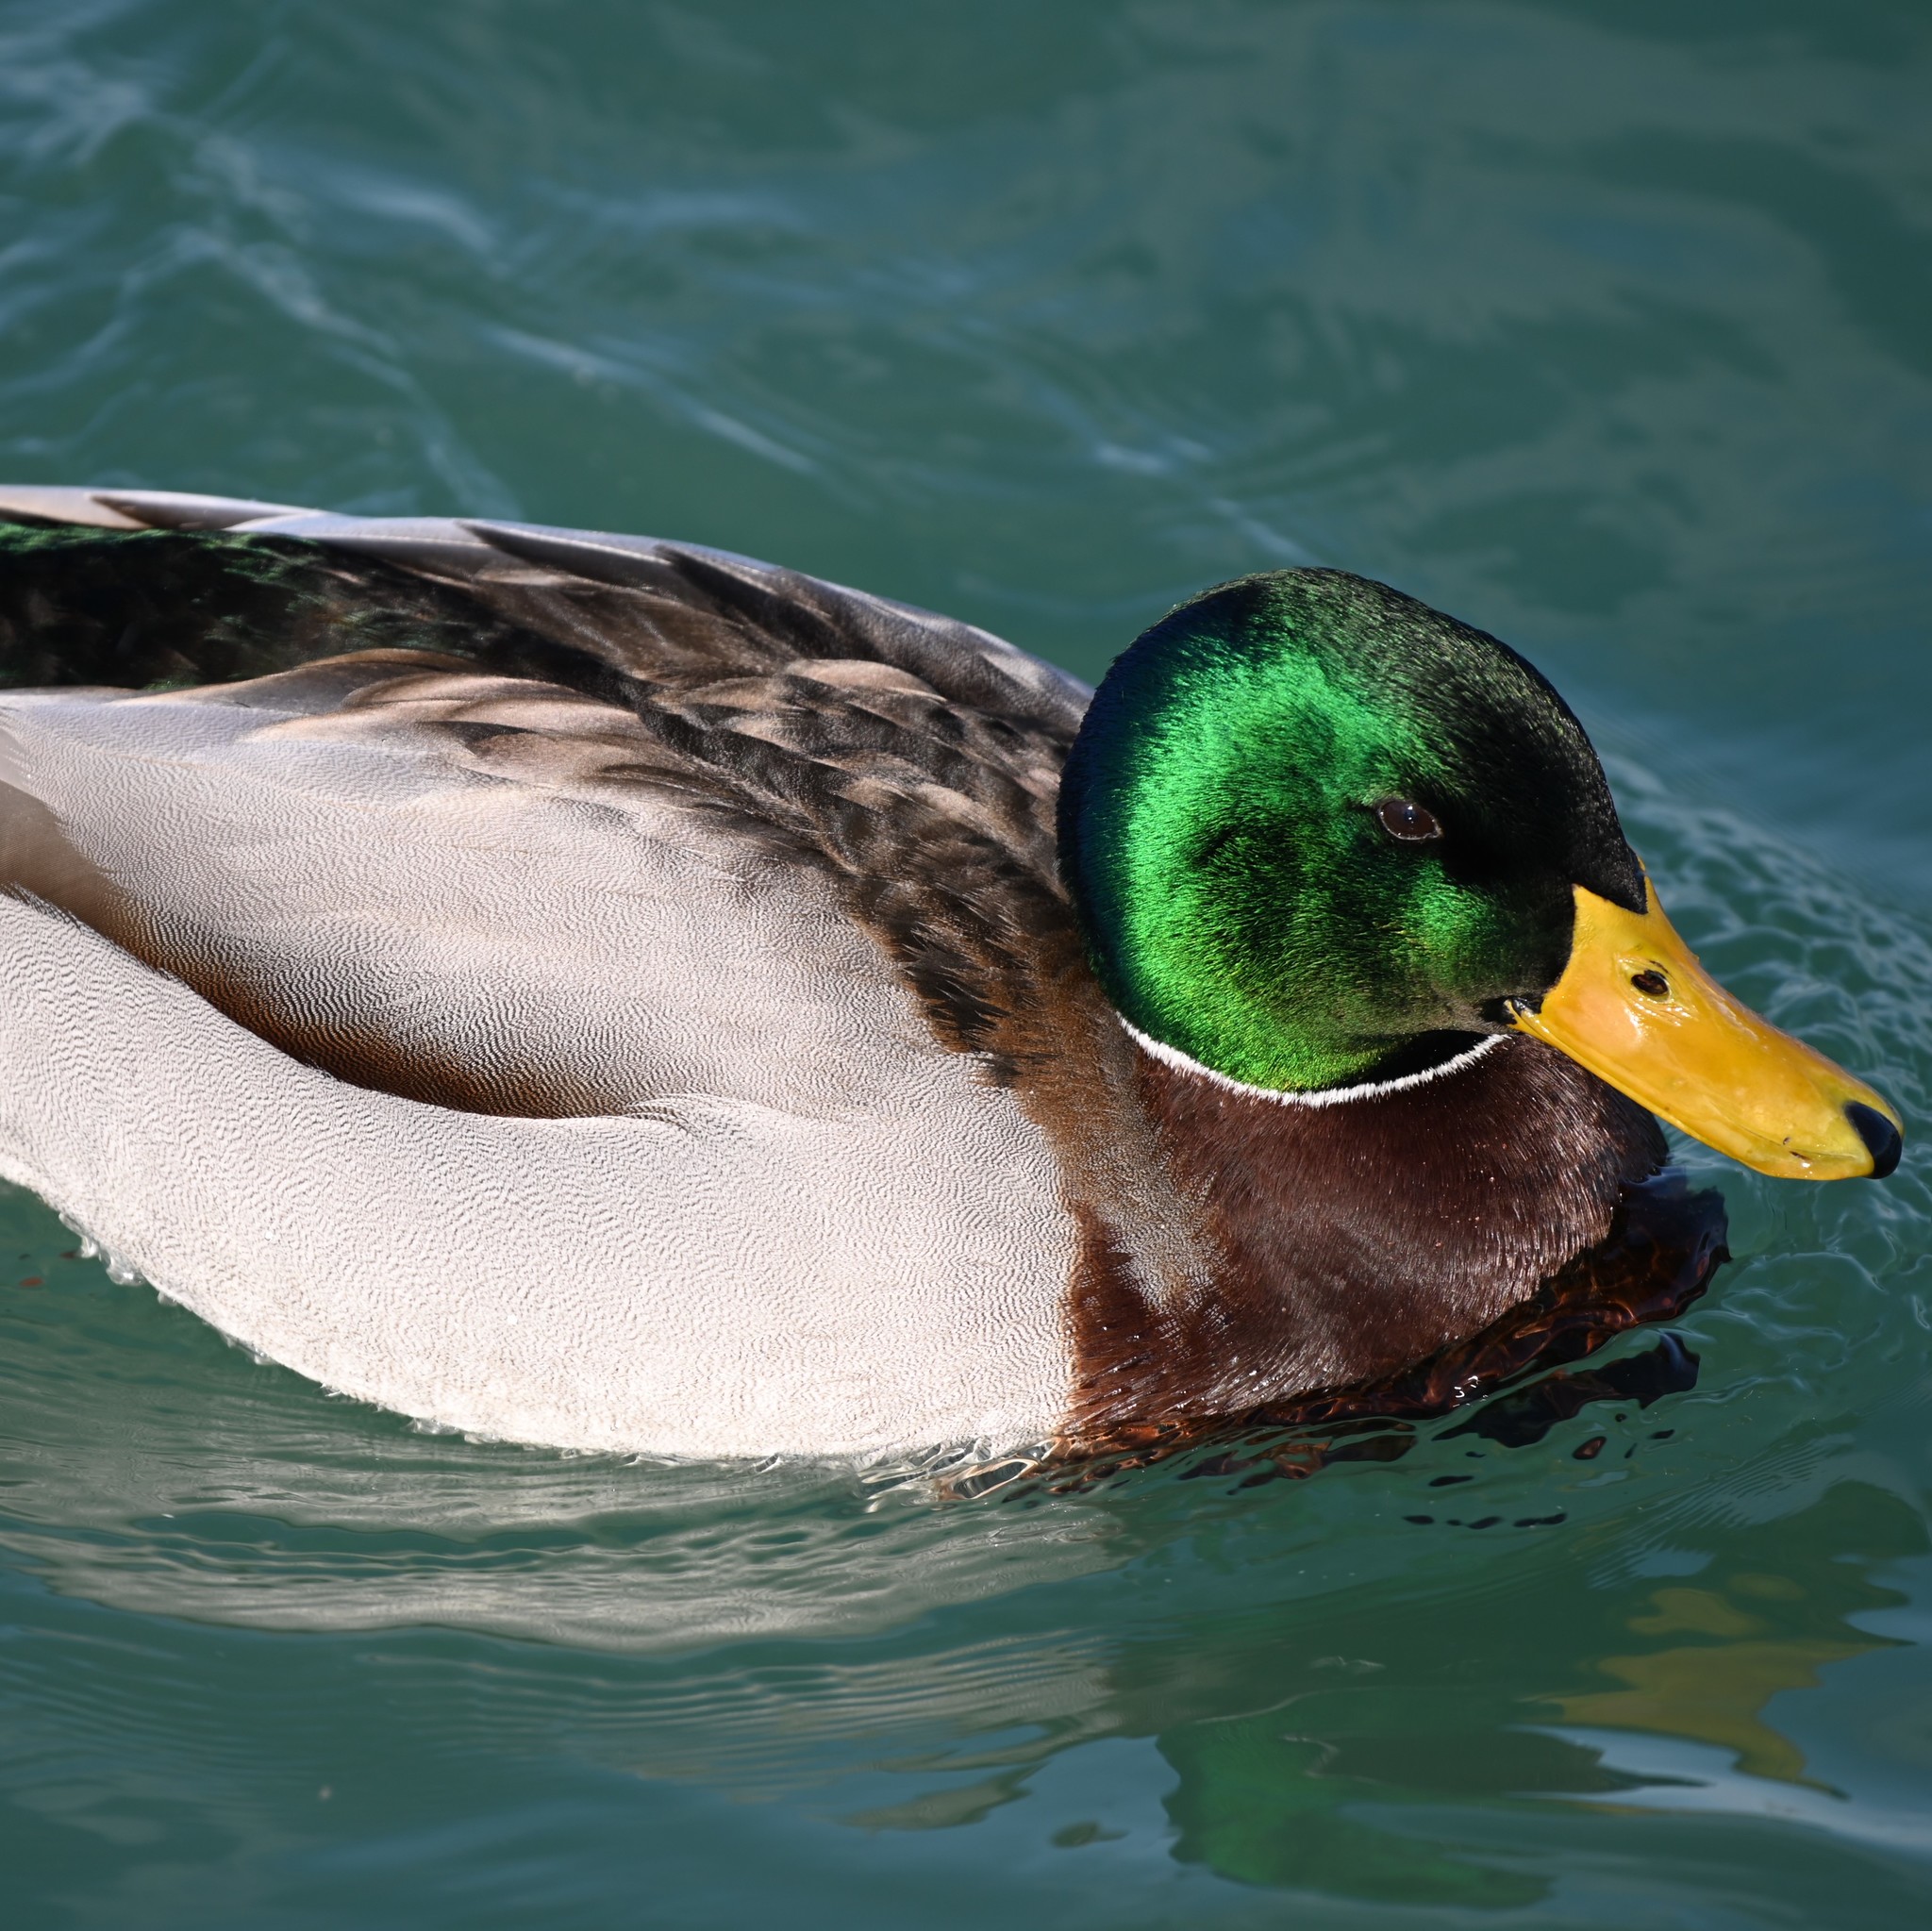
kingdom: Animalia
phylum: Chordata
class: Aves
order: Anseriformes
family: Anatidae
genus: Anas
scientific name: Anas platyrhynchos
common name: Mallard
